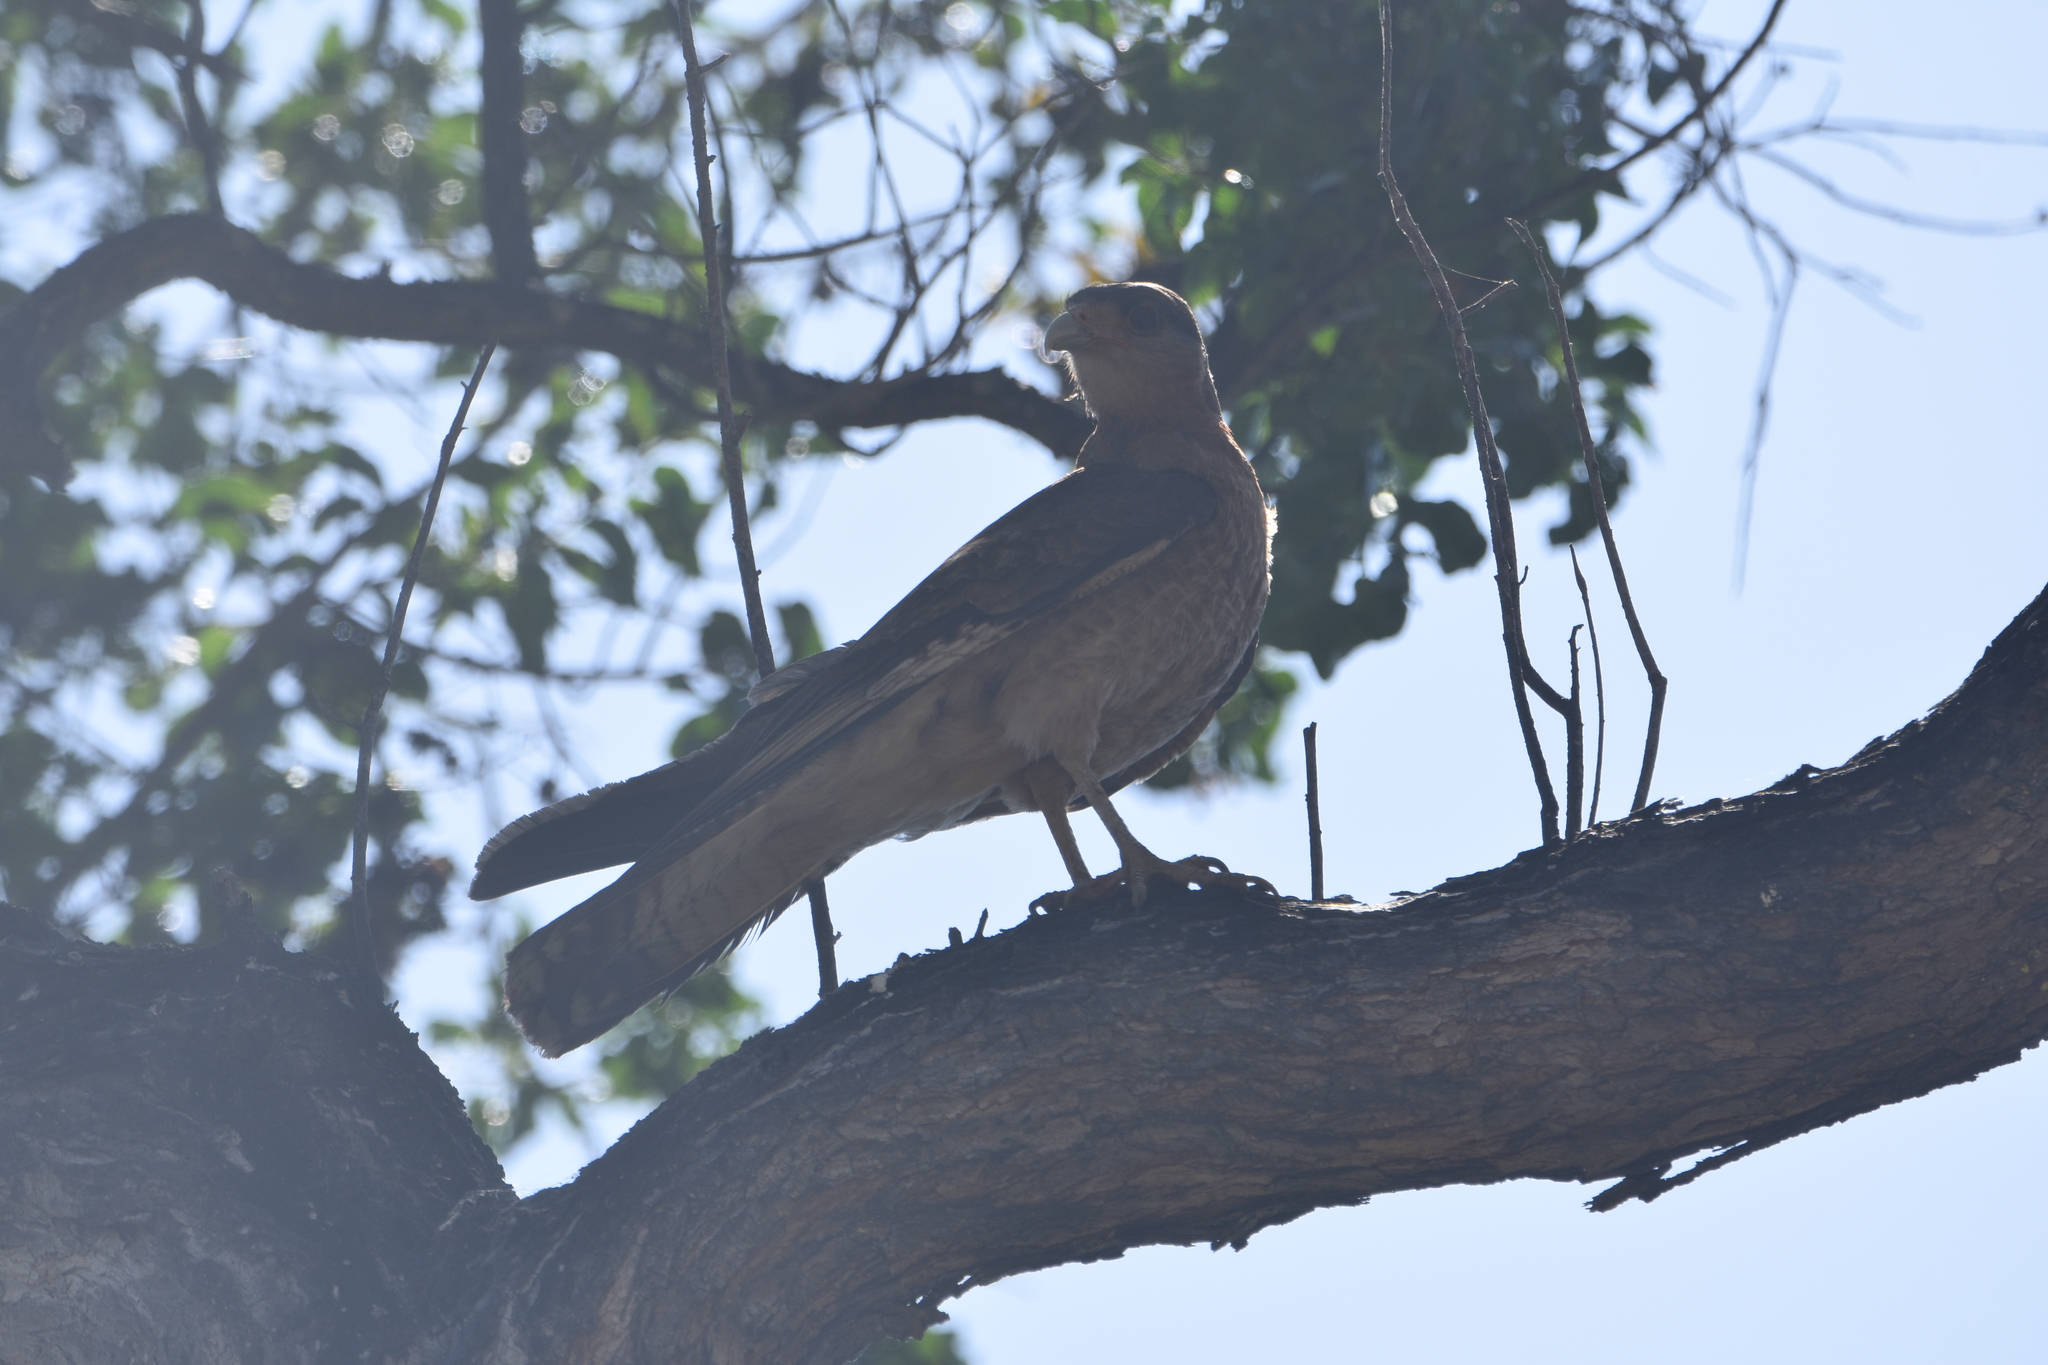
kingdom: Animalia
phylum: Chordata
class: Aves
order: Falconiformes
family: Falconidae
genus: Daptrius
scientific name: Daptrius
